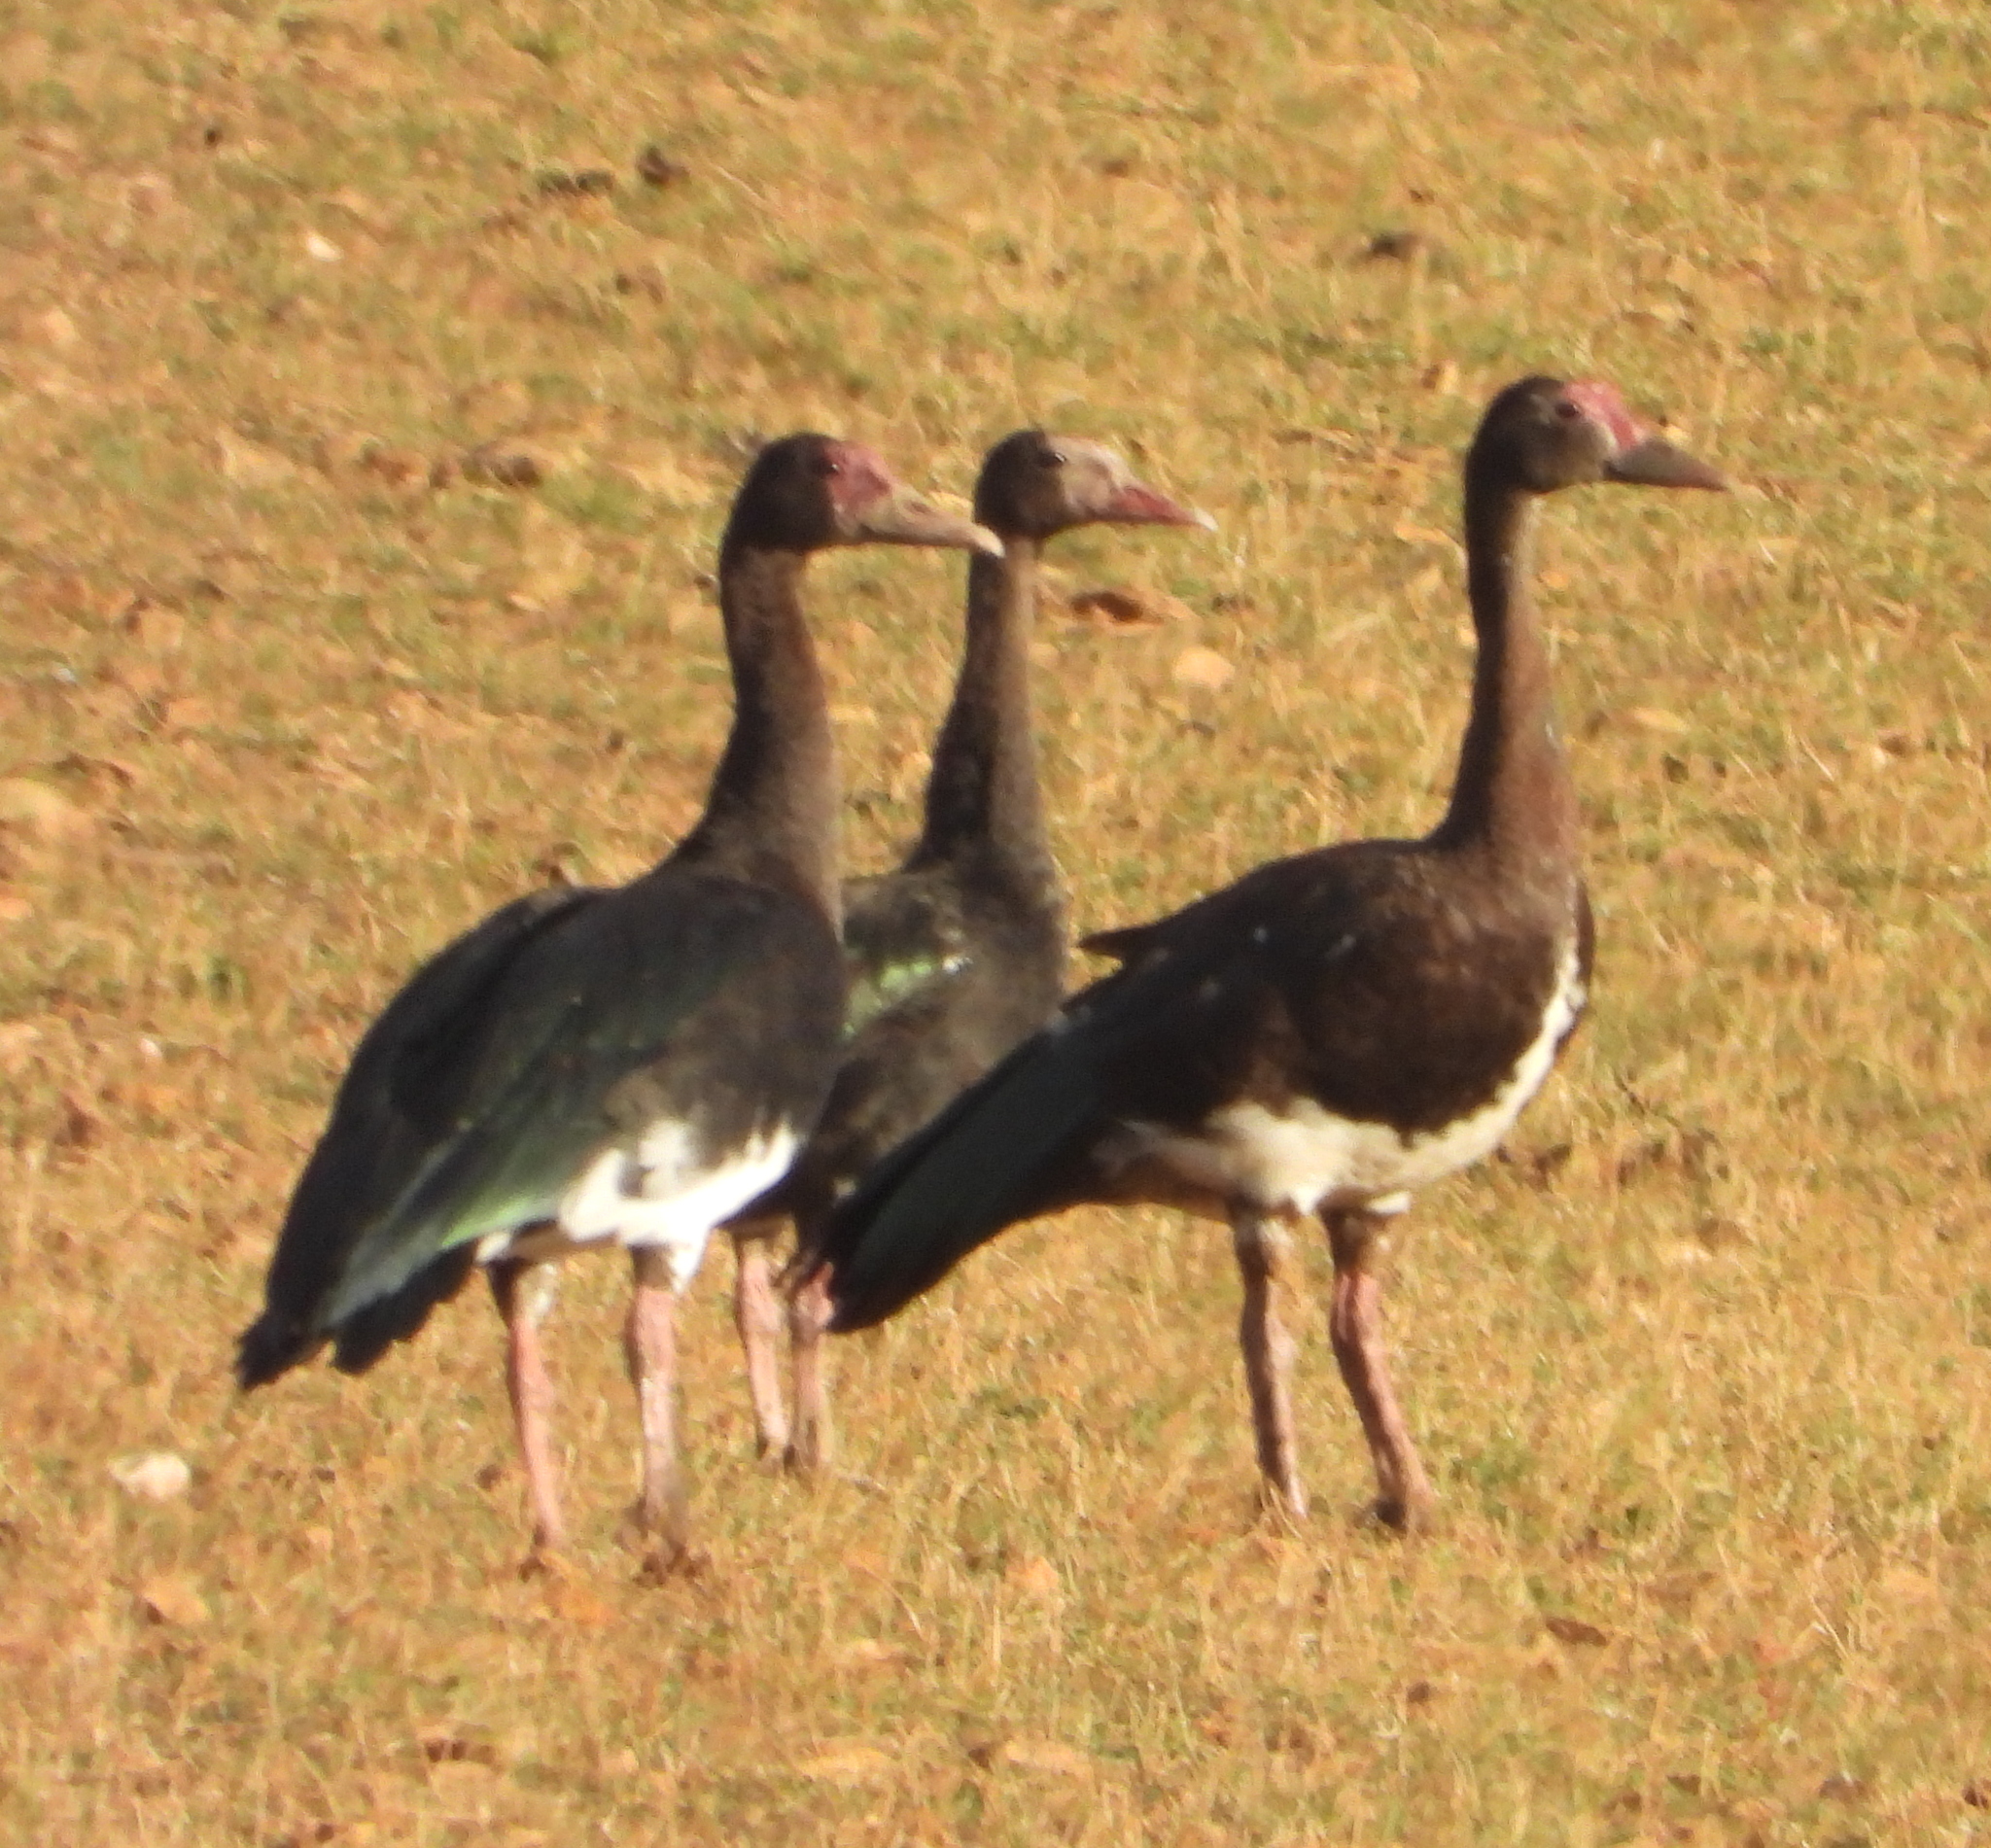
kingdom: Animalia
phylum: Chordata
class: Aves
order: Anseriformes
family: Anatidae
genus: Plectropterus
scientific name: Plectropterus gambensis
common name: Spur-winged goose
